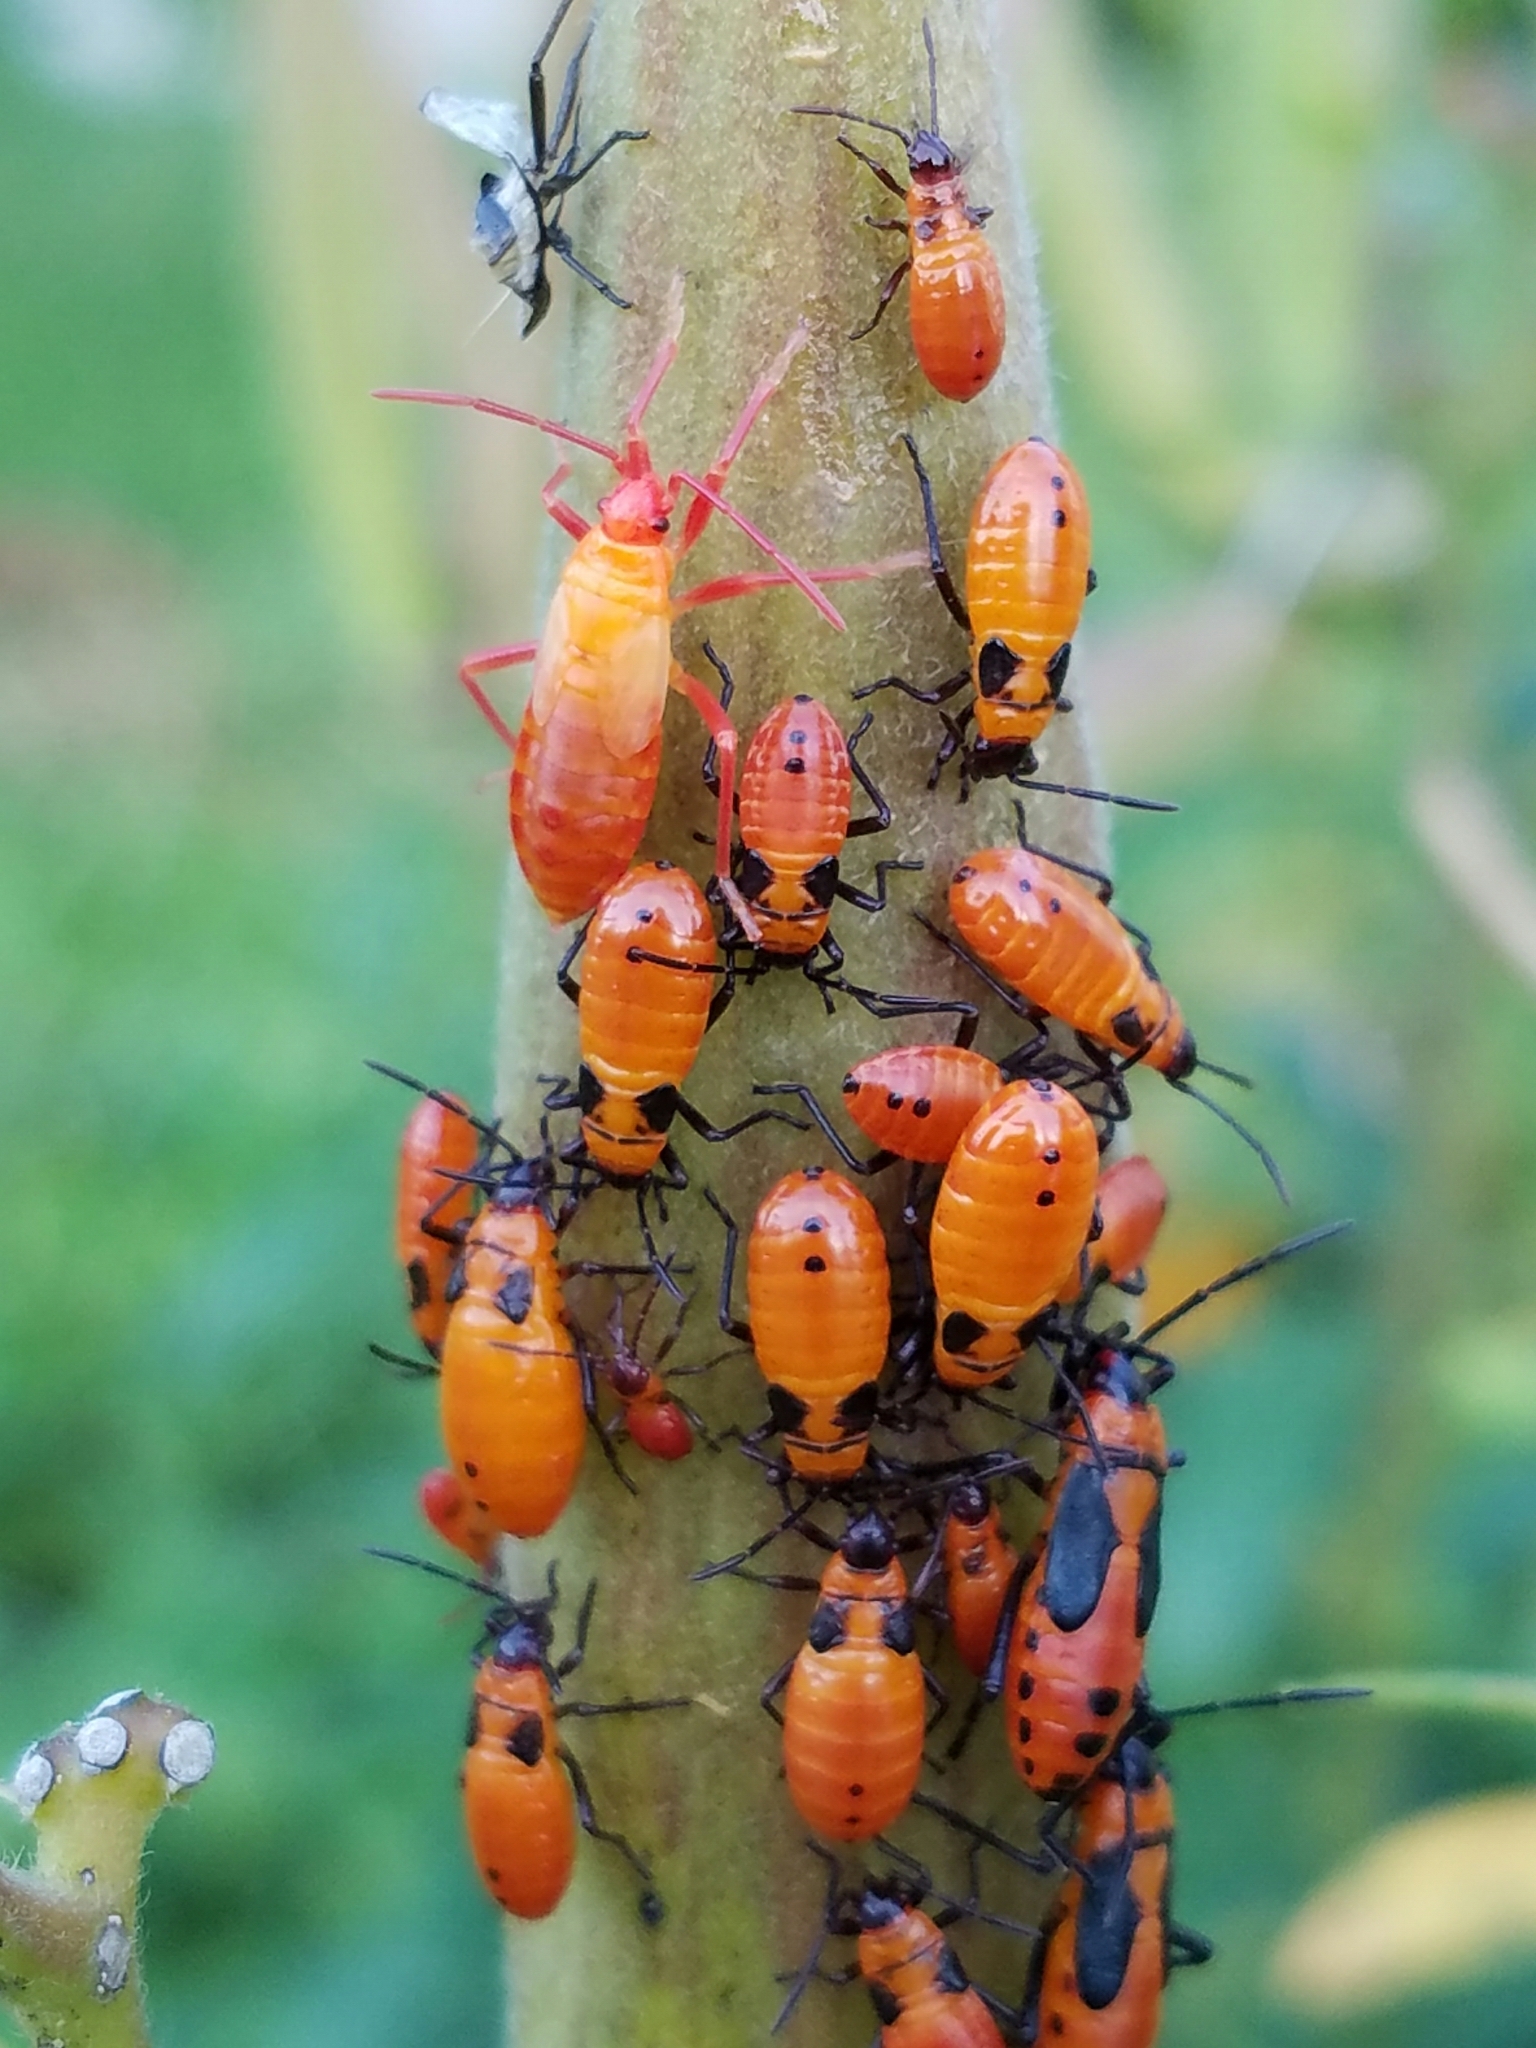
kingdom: Animalia
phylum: Arthropoda
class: Insecta
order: Hemiptera
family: Lygaeidae
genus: Oncopeltus
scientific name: Oncopeltus fasciatus
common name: Large milkweed bug
